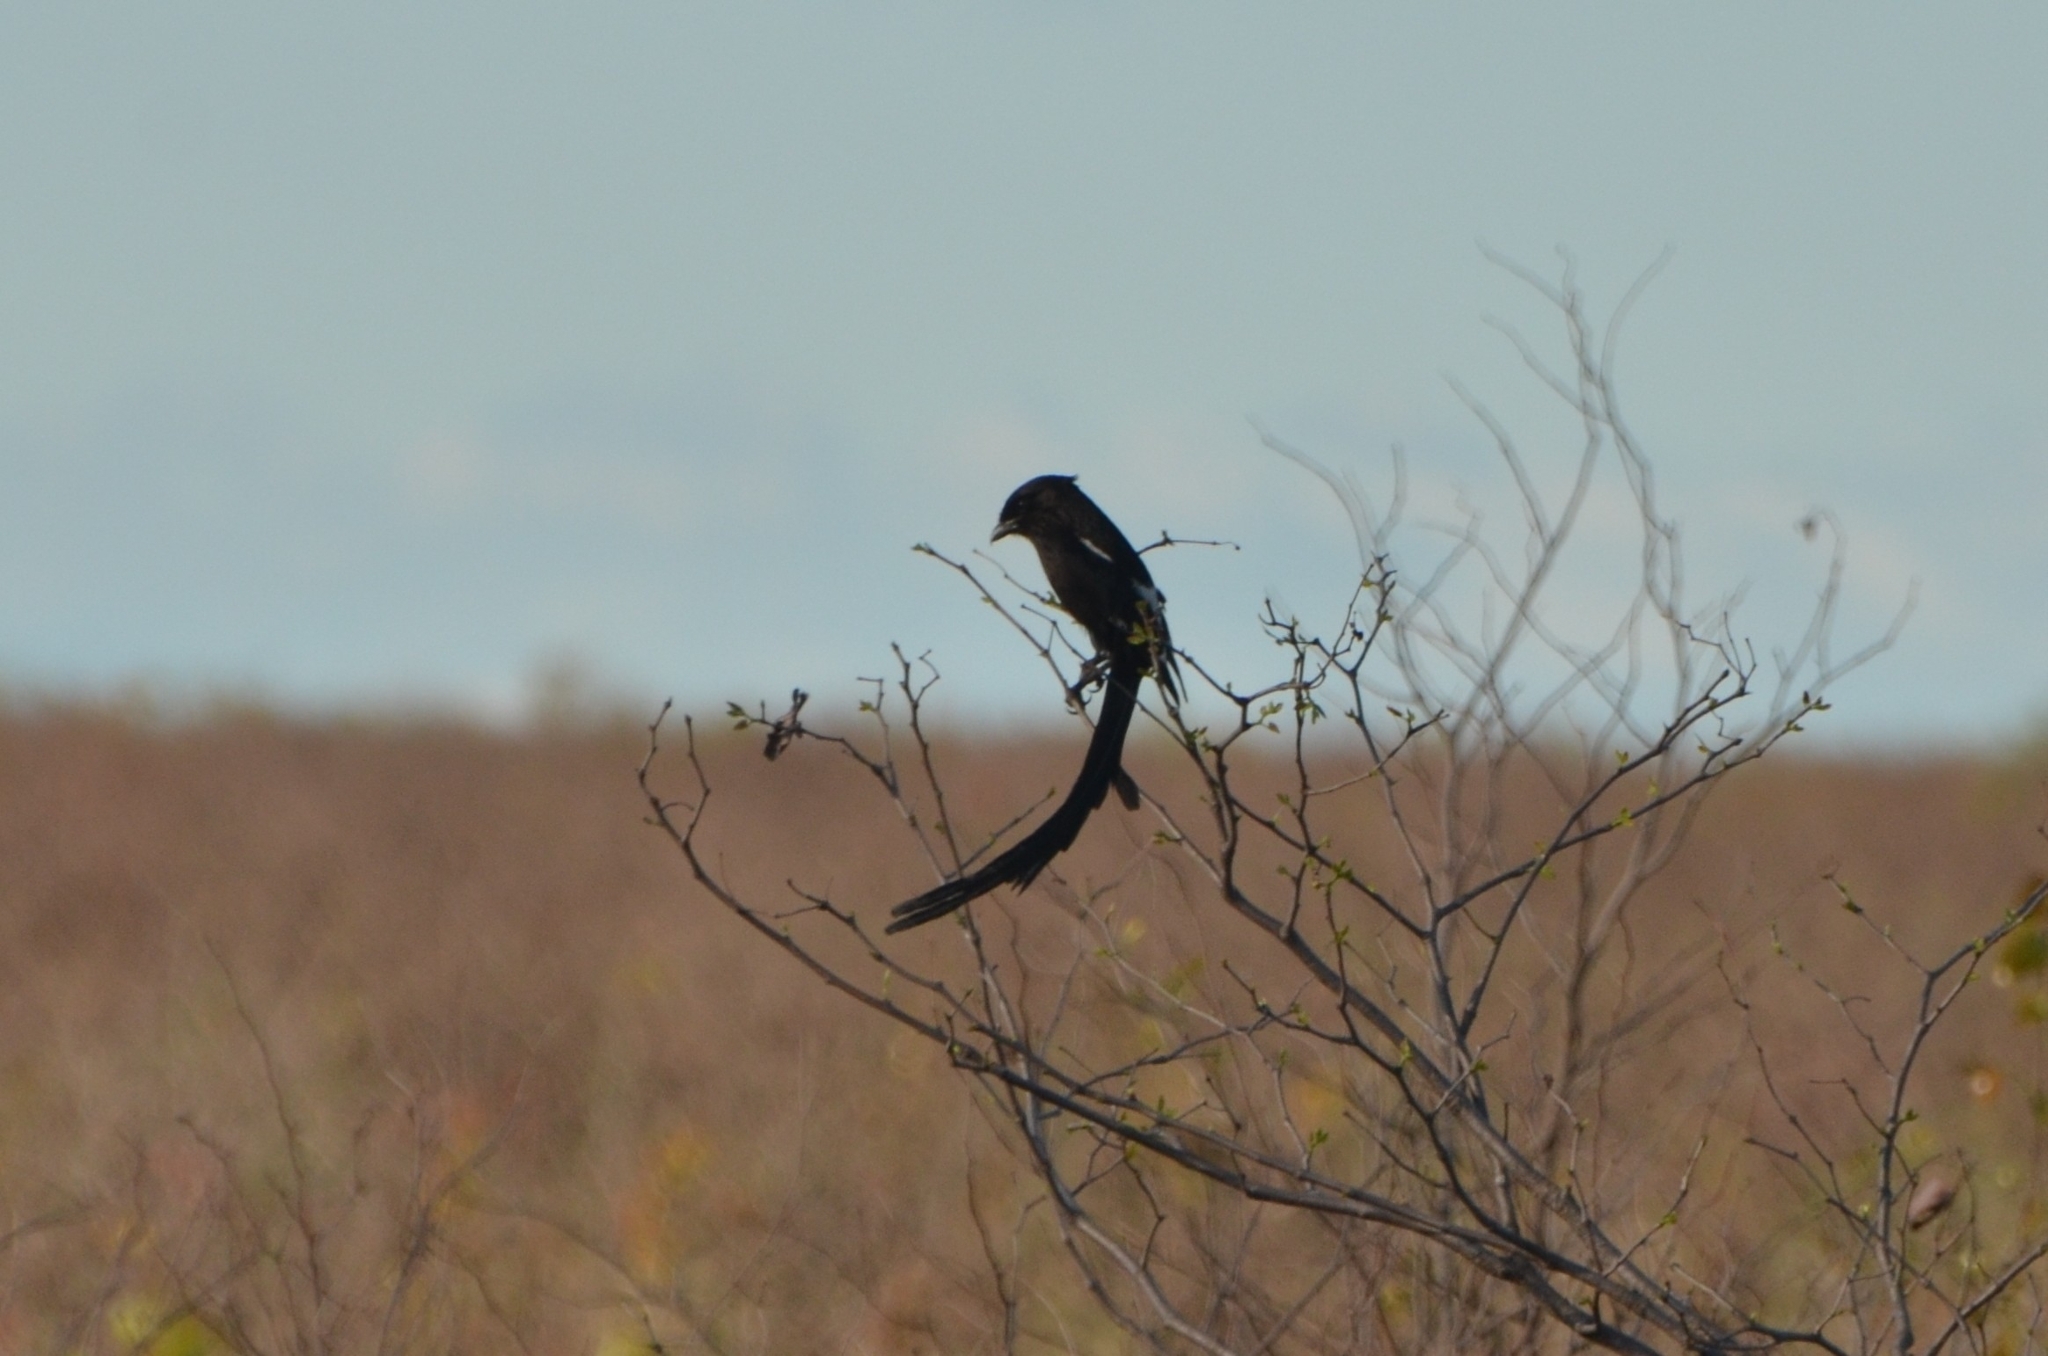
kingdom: Animalia
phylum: Chordata
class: Aves
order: Passeriformes
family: Laniidae
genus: Urolestes
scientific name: Urolestes melanoleucus
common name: Magpie shrike
